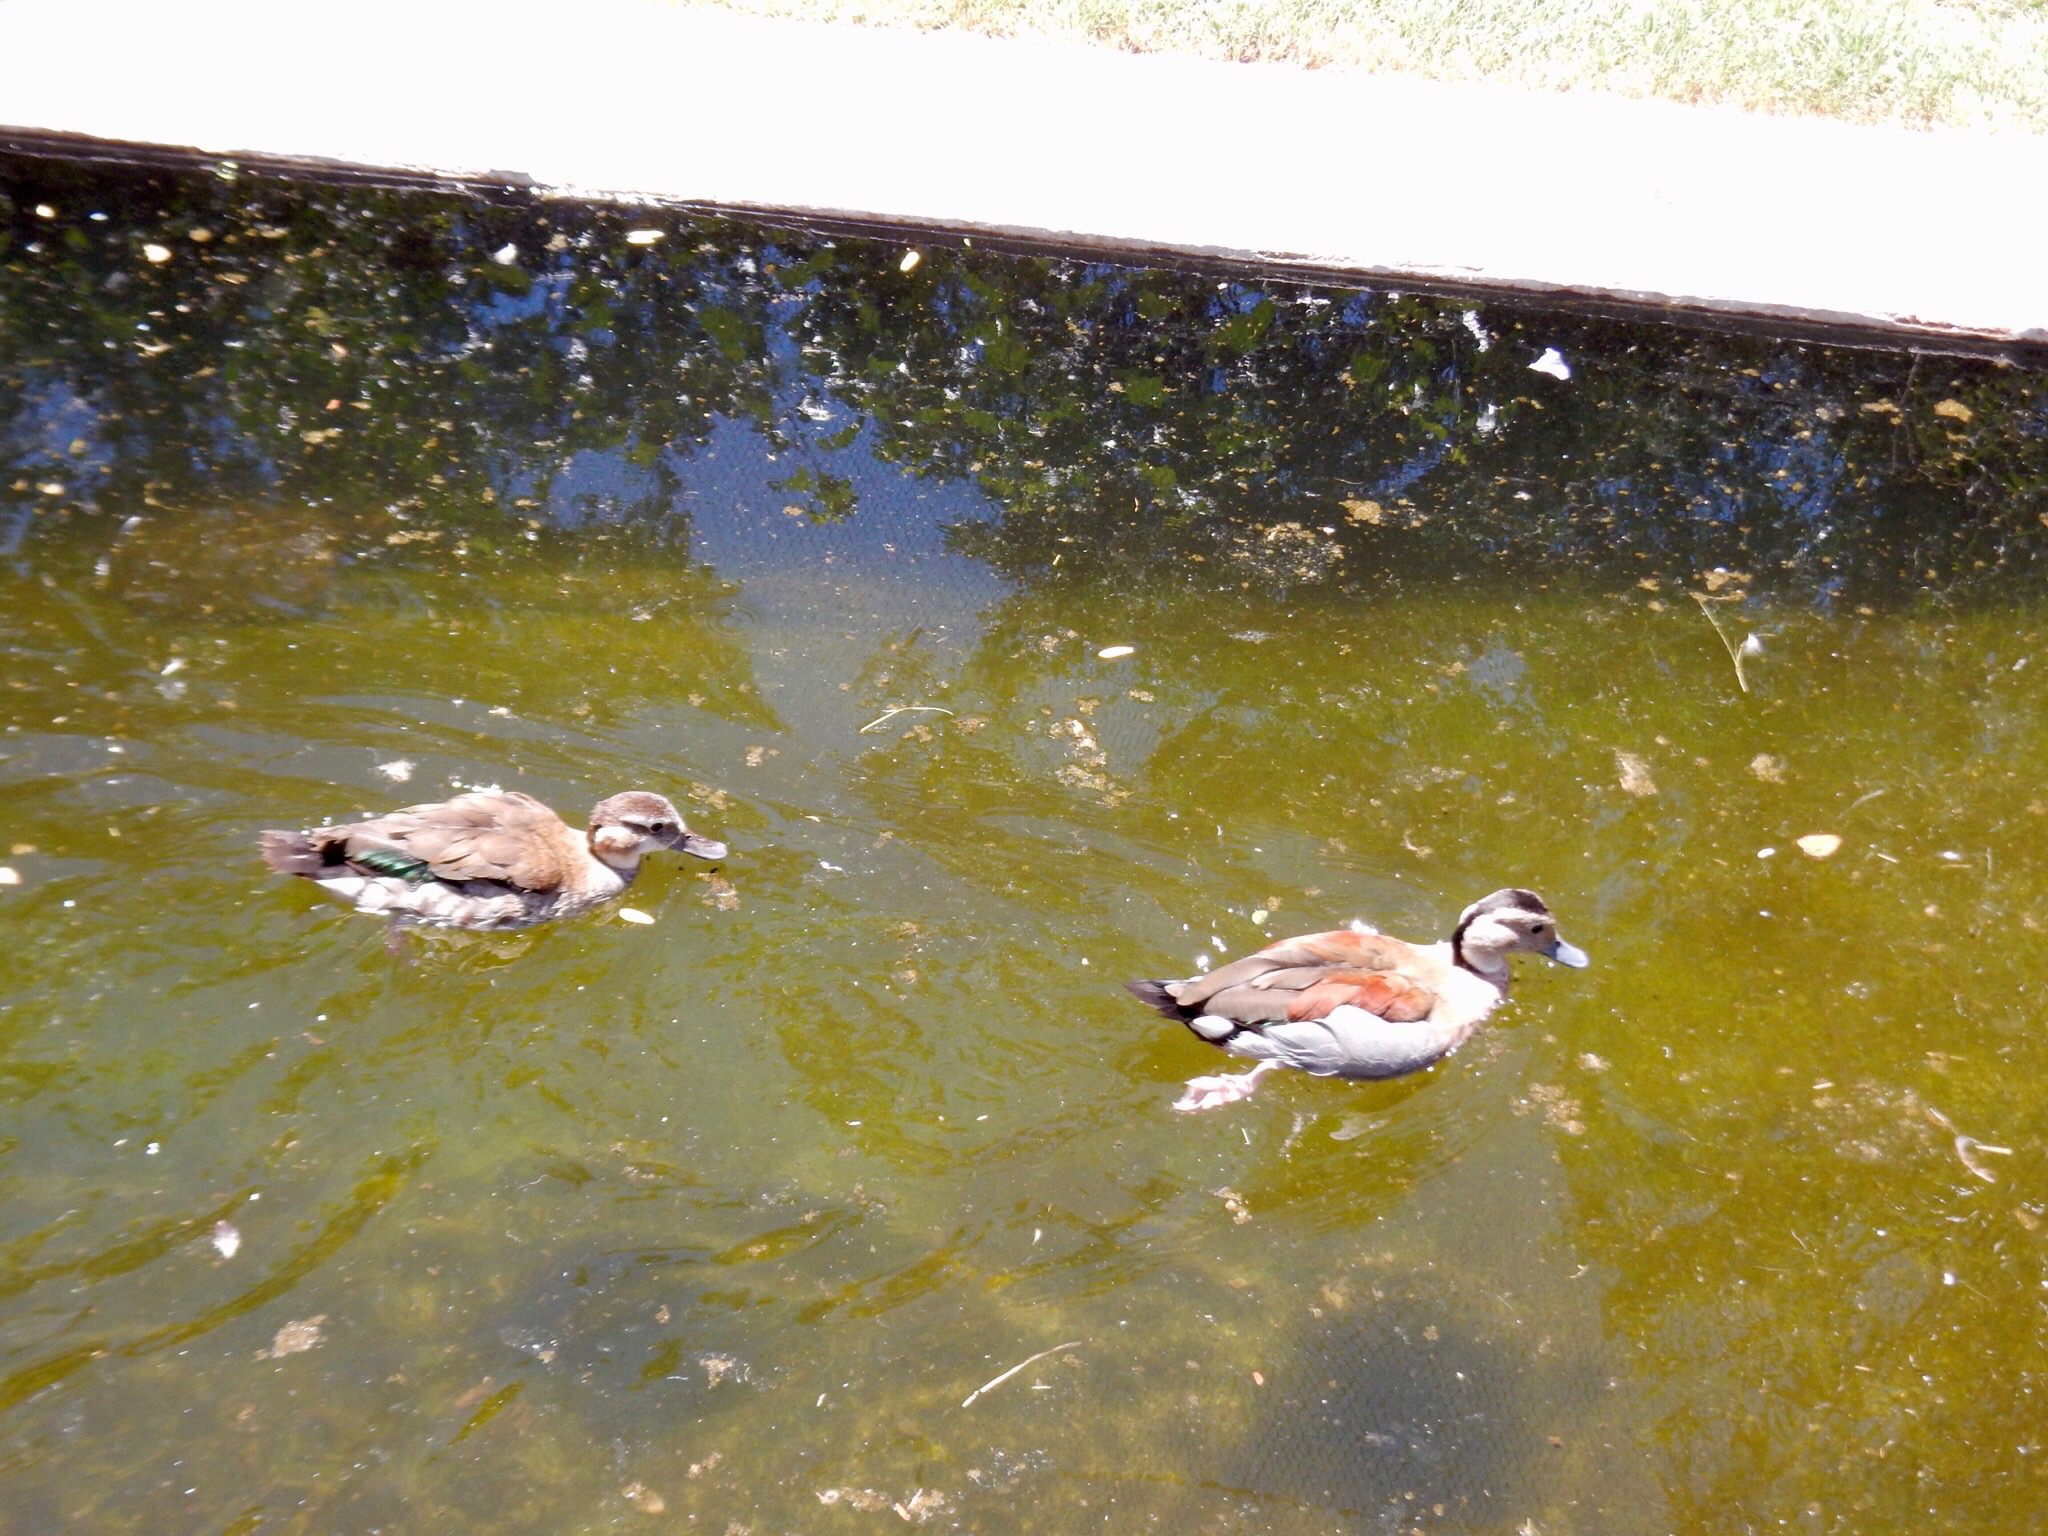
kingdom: Animalia
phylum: Chordata
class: Aves
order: Anseriformes
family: Anatidae
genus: Callonetta
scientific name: Callonetta leucophrys
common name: Ringed teal
